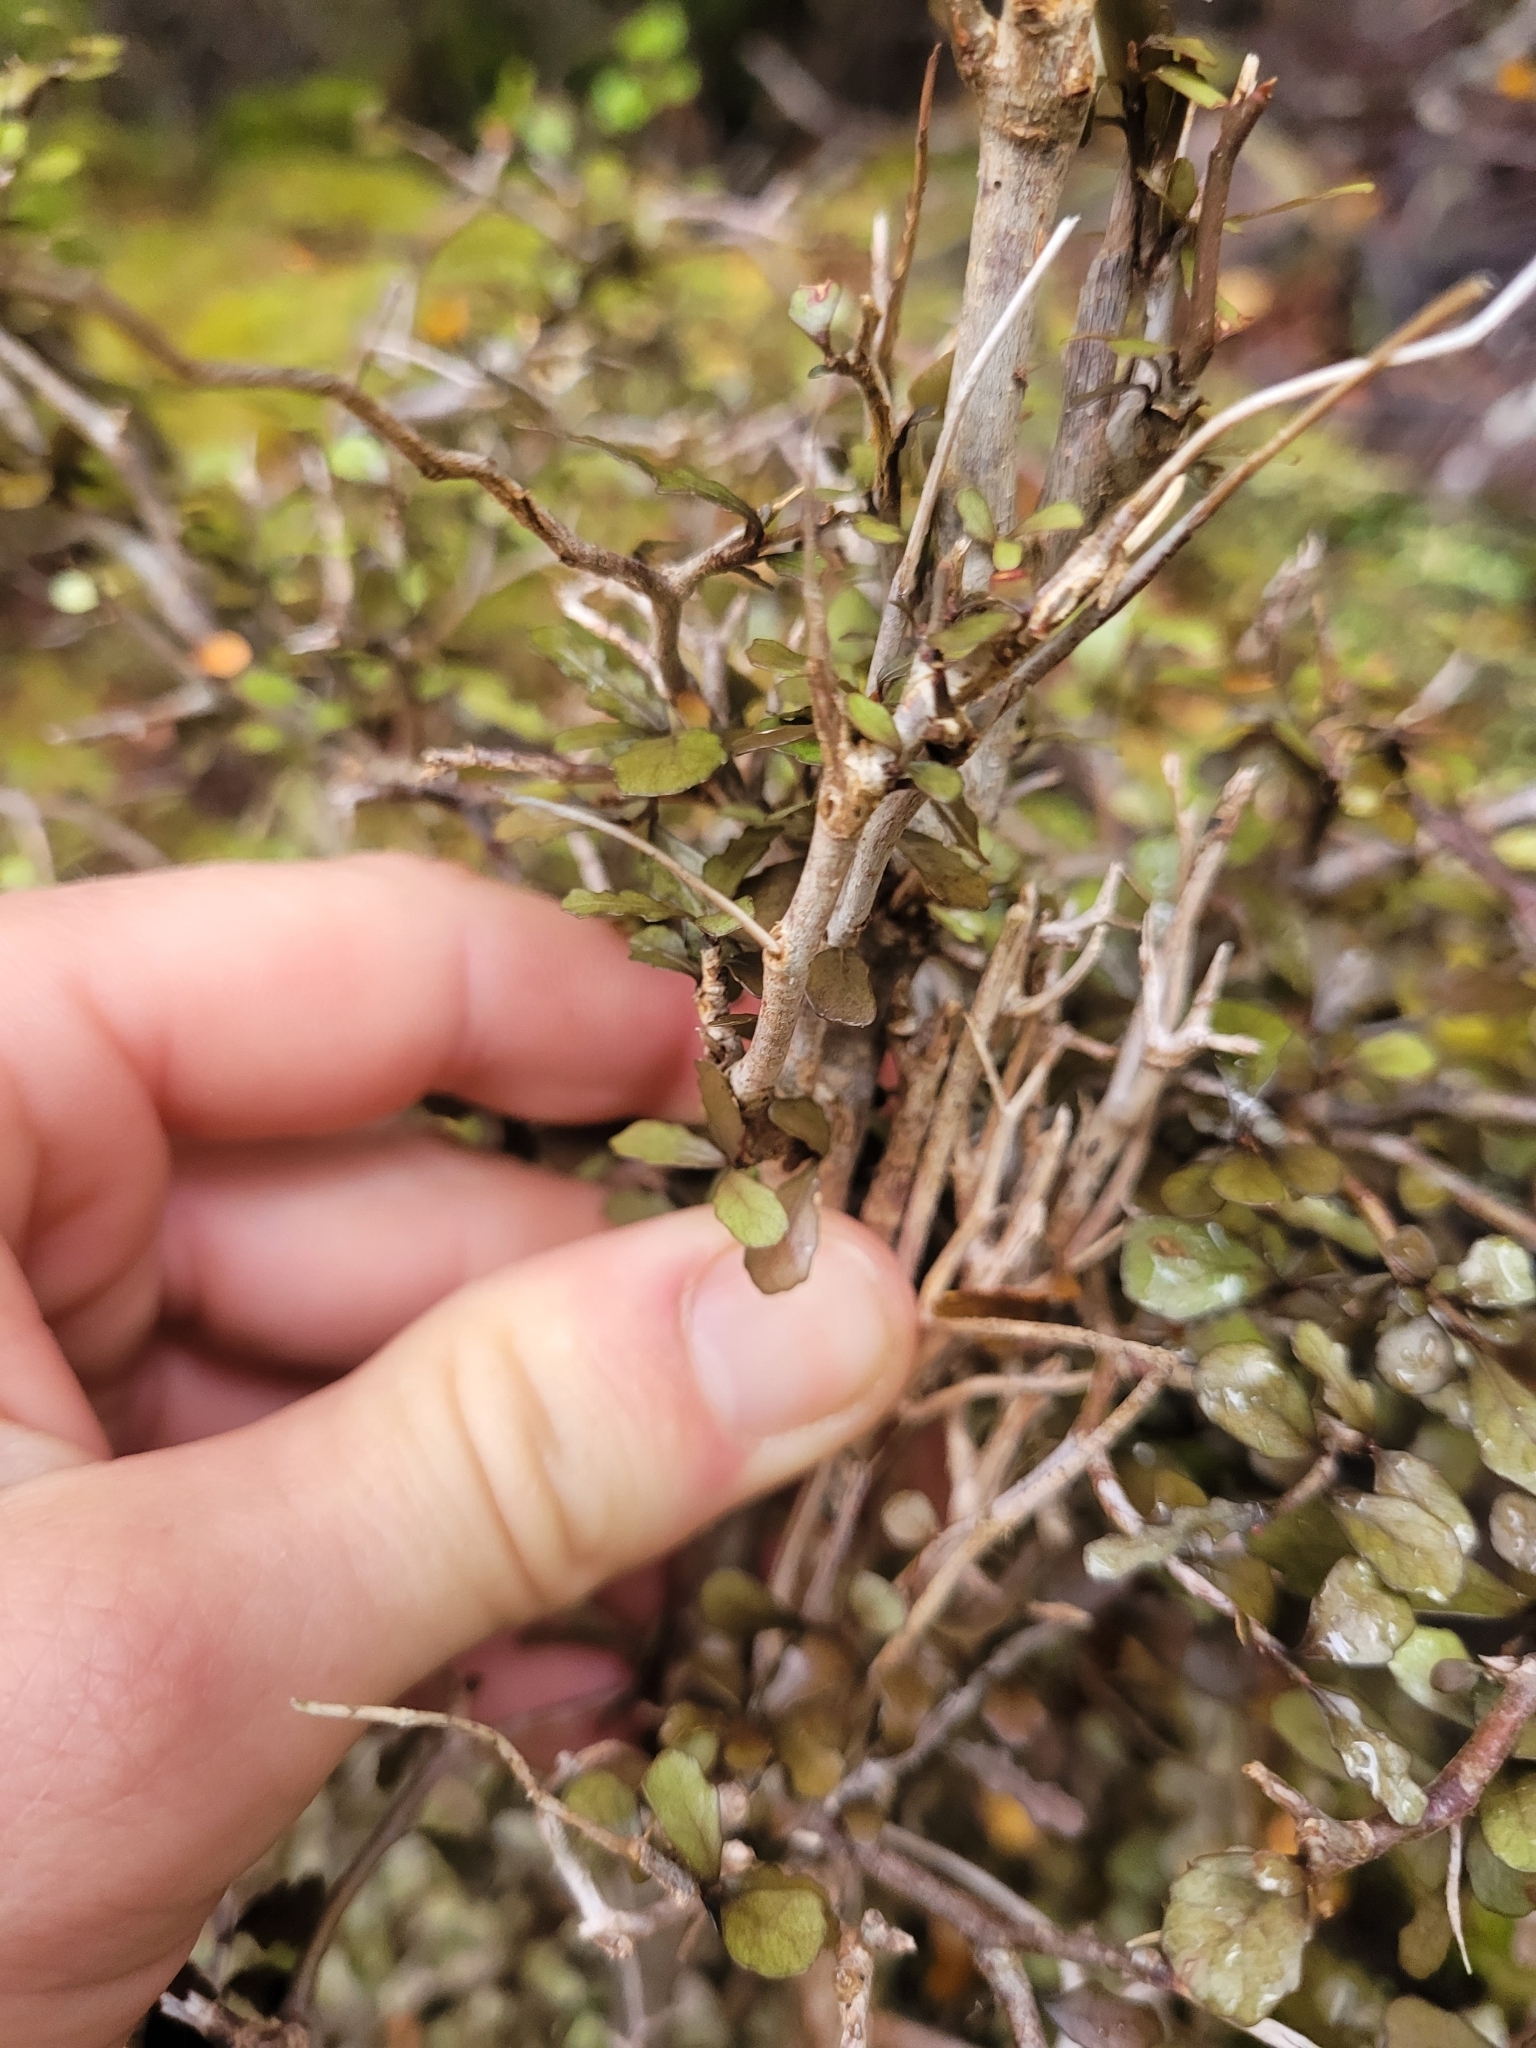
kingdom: Plantae
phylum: Tracheophyta
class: Magnoliopsida
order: Oxalidales
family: Elaeocarpaceae
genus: Elaeocarpus
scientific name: Elaeocarpus hookerianus
